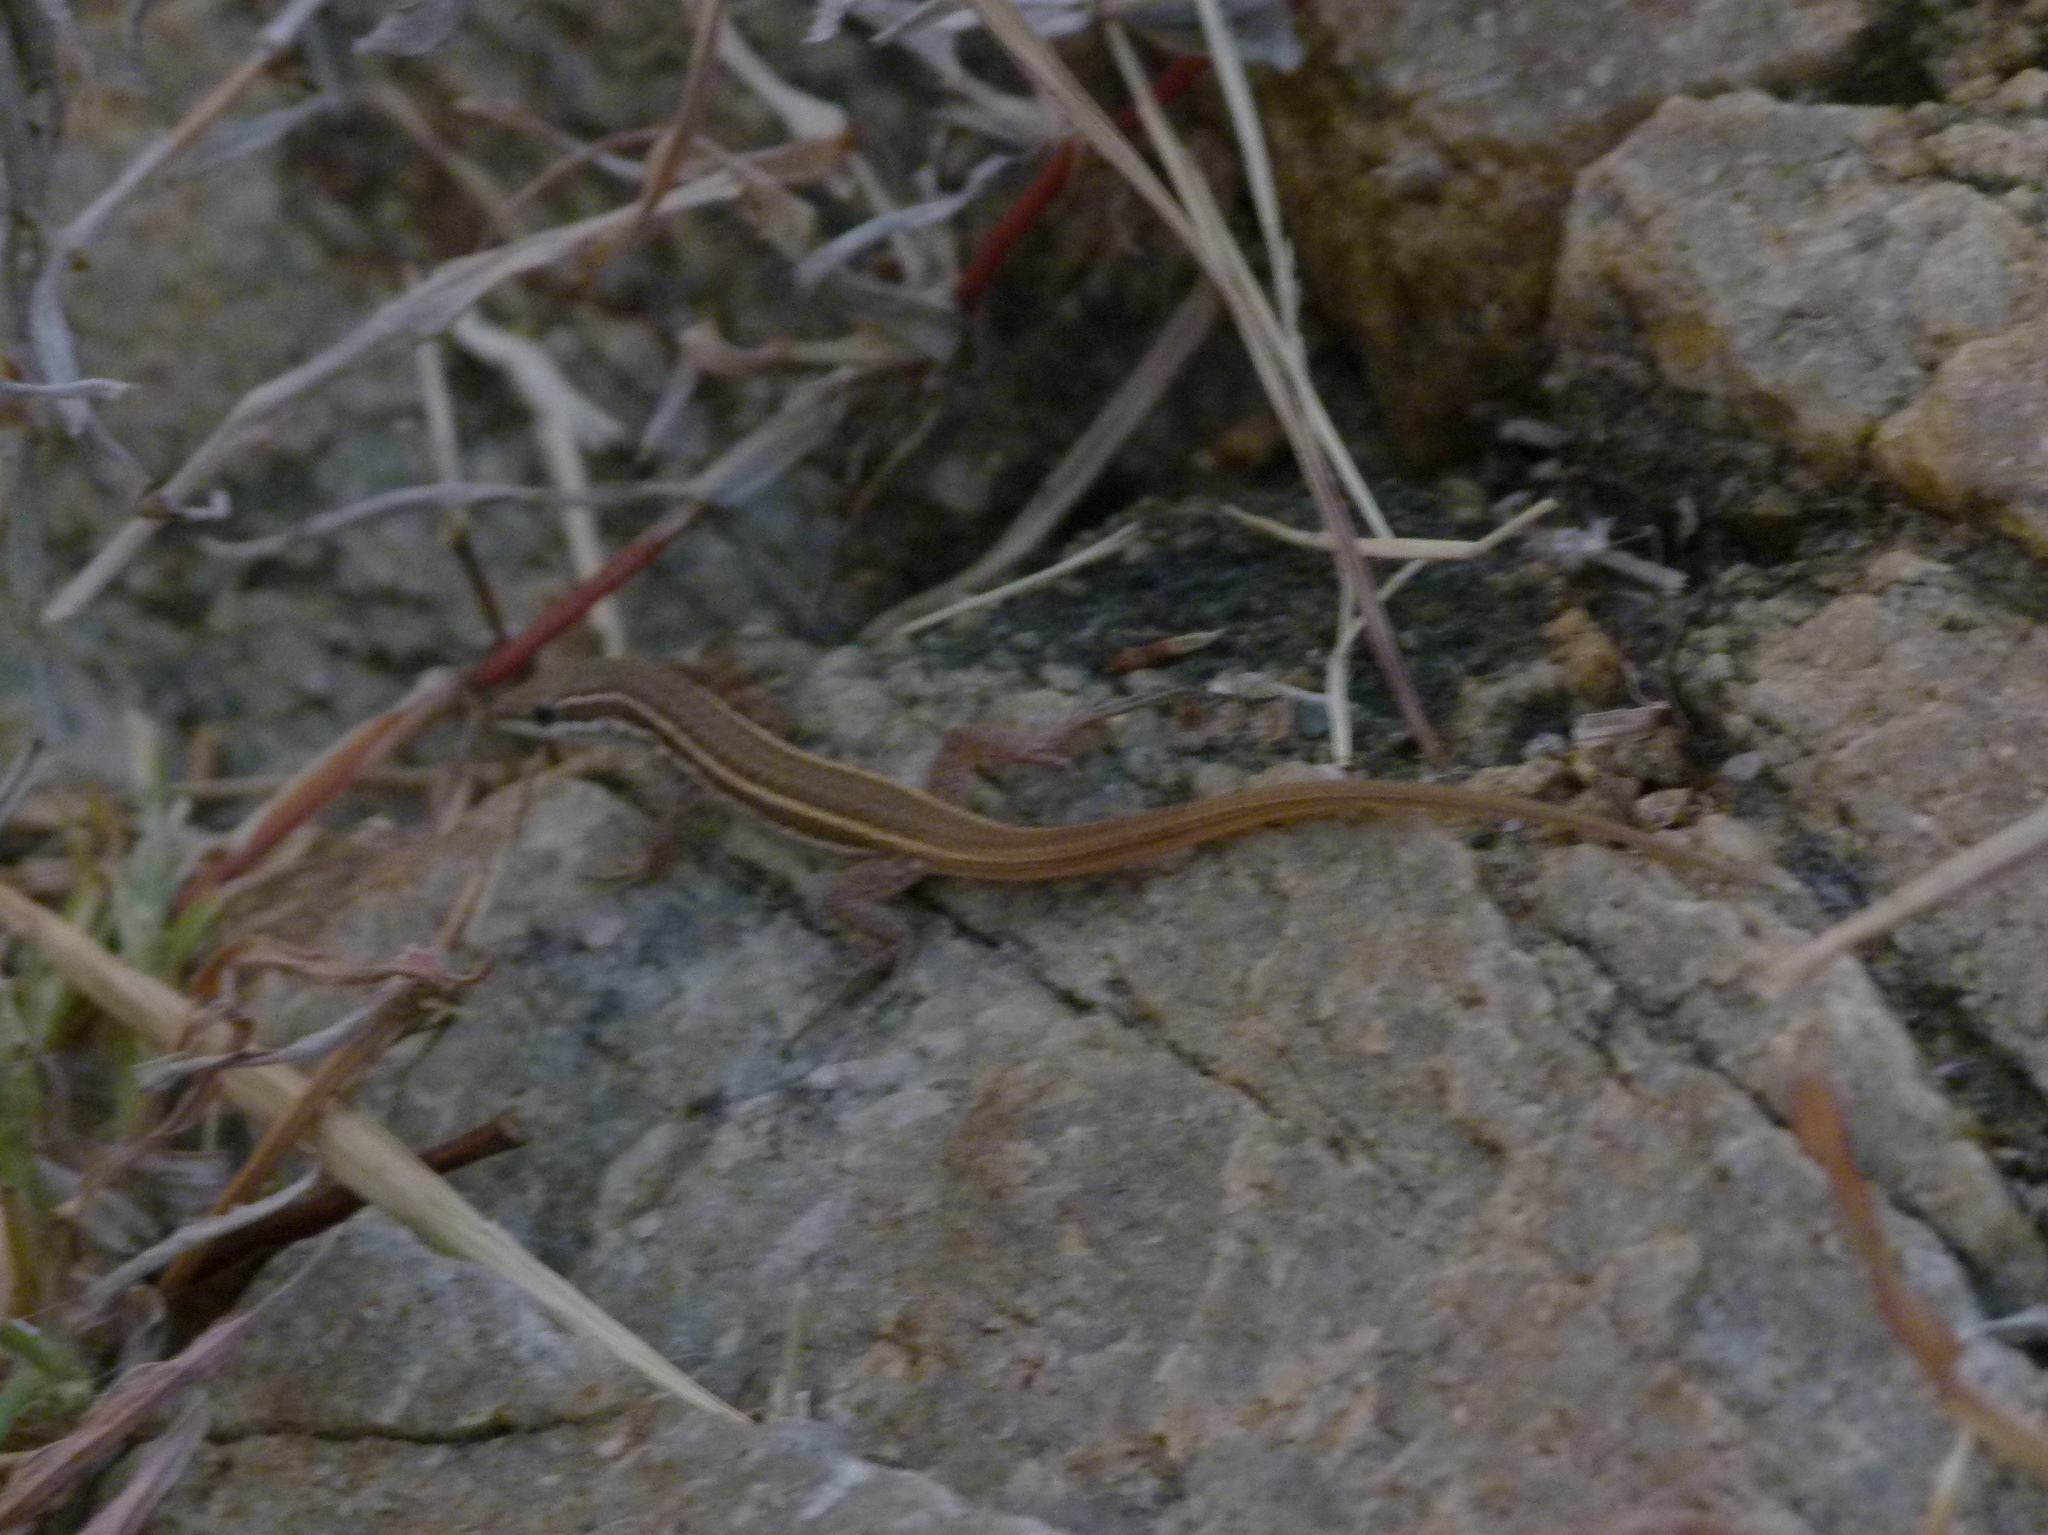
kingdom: Animalia
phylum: Chordata
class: Squamata
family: Lacertidae
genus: Ophisops
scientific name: Ophisops pushkarensis
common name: Pushkar small-scaled snake-eye
